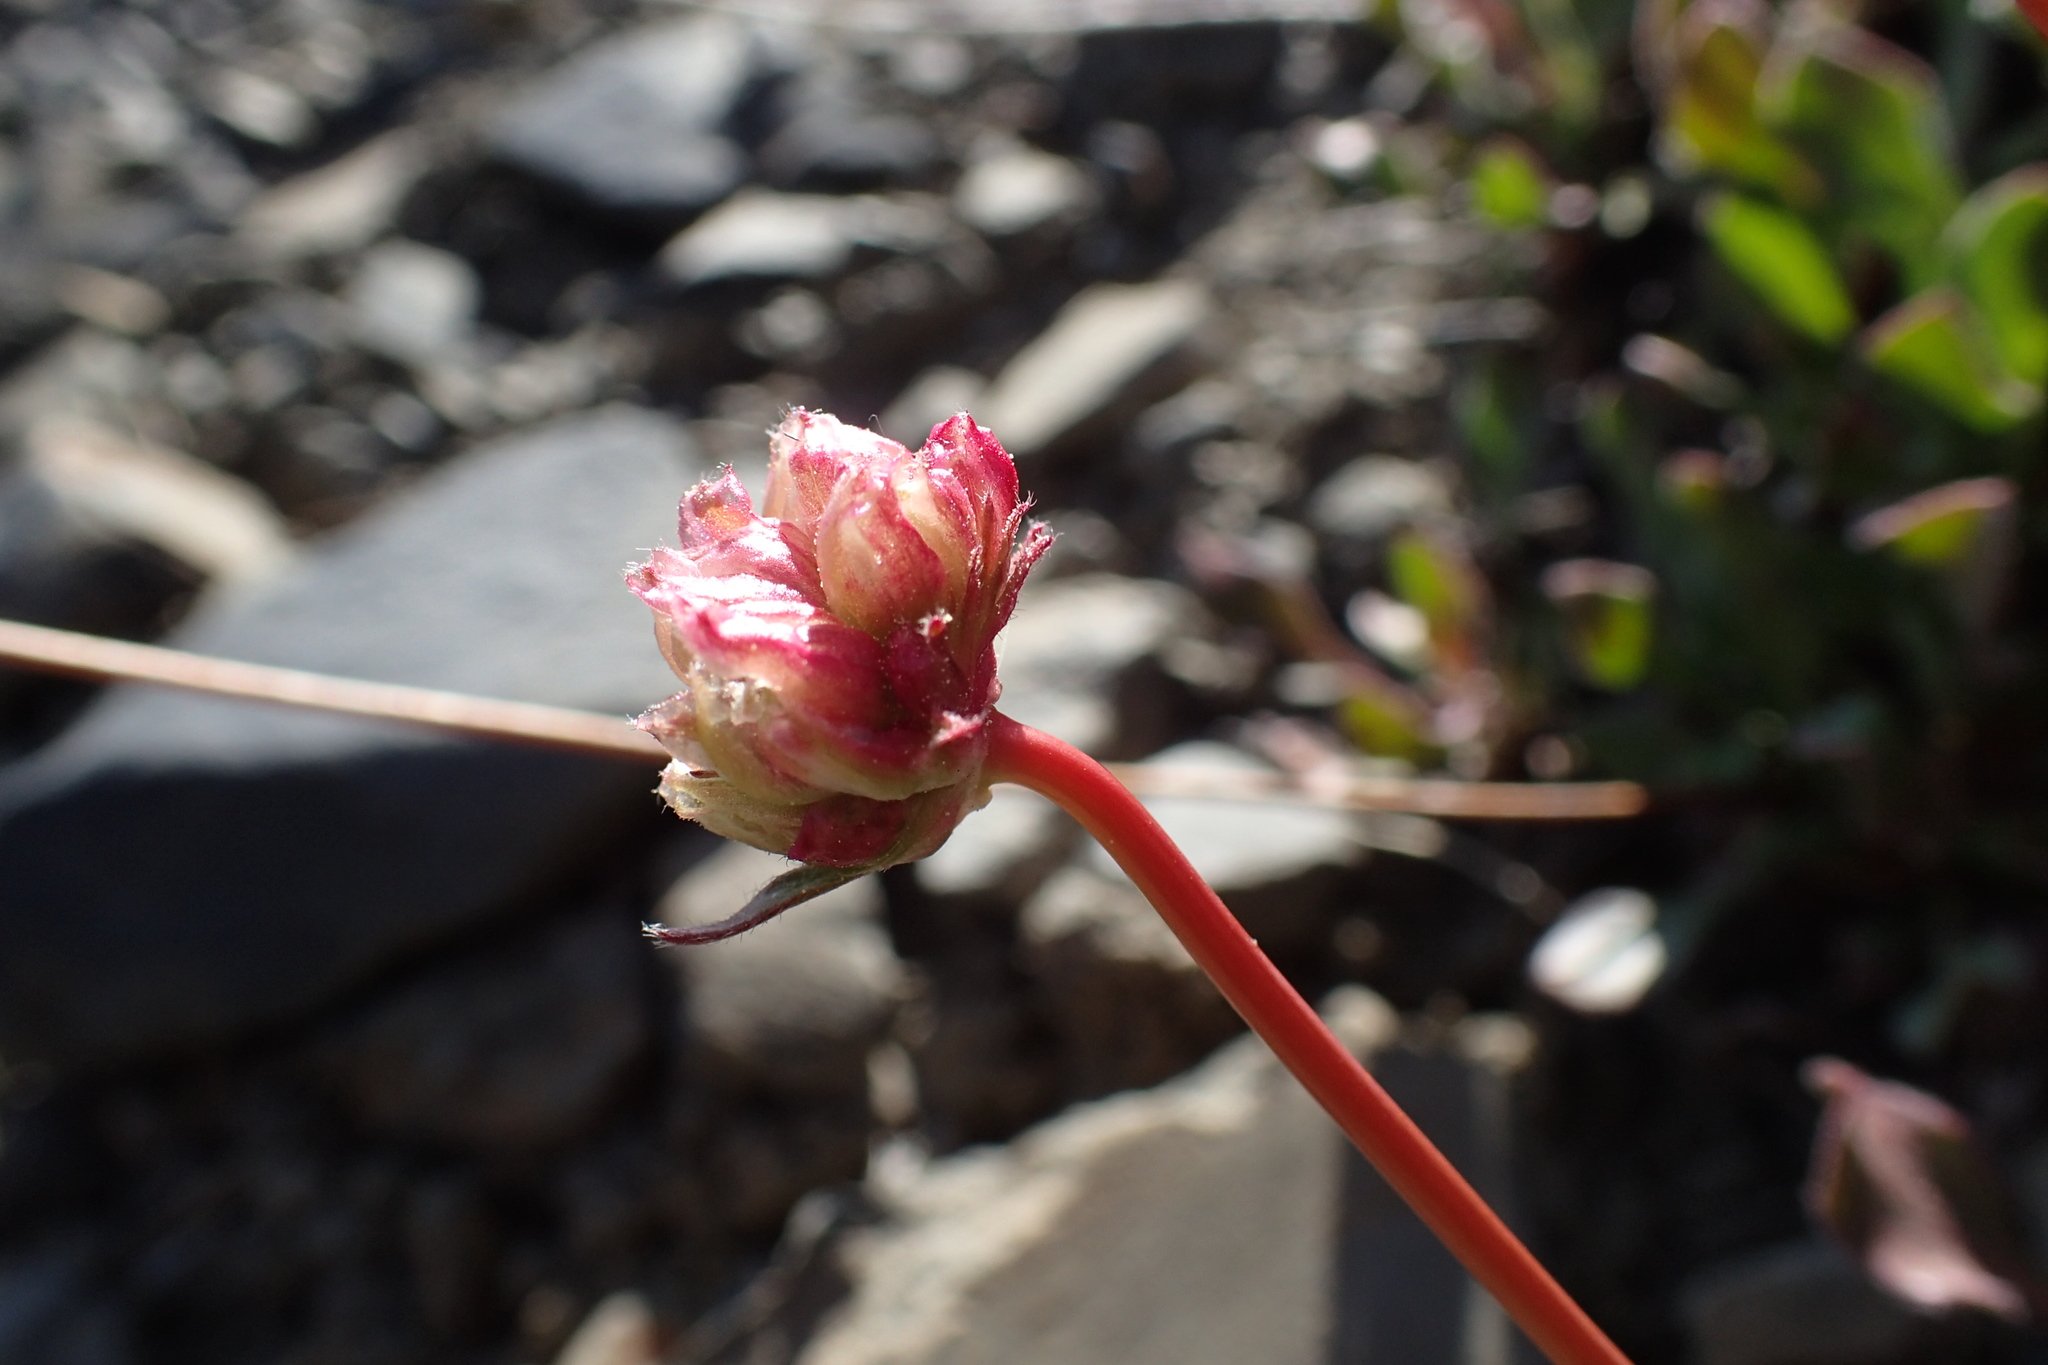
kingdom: Plantae
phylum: Tracheophyta
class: Magnoliopsida
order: Caryophyllales
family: Polygonaceae
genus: Eriogonum
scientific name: Eriogonum latens
